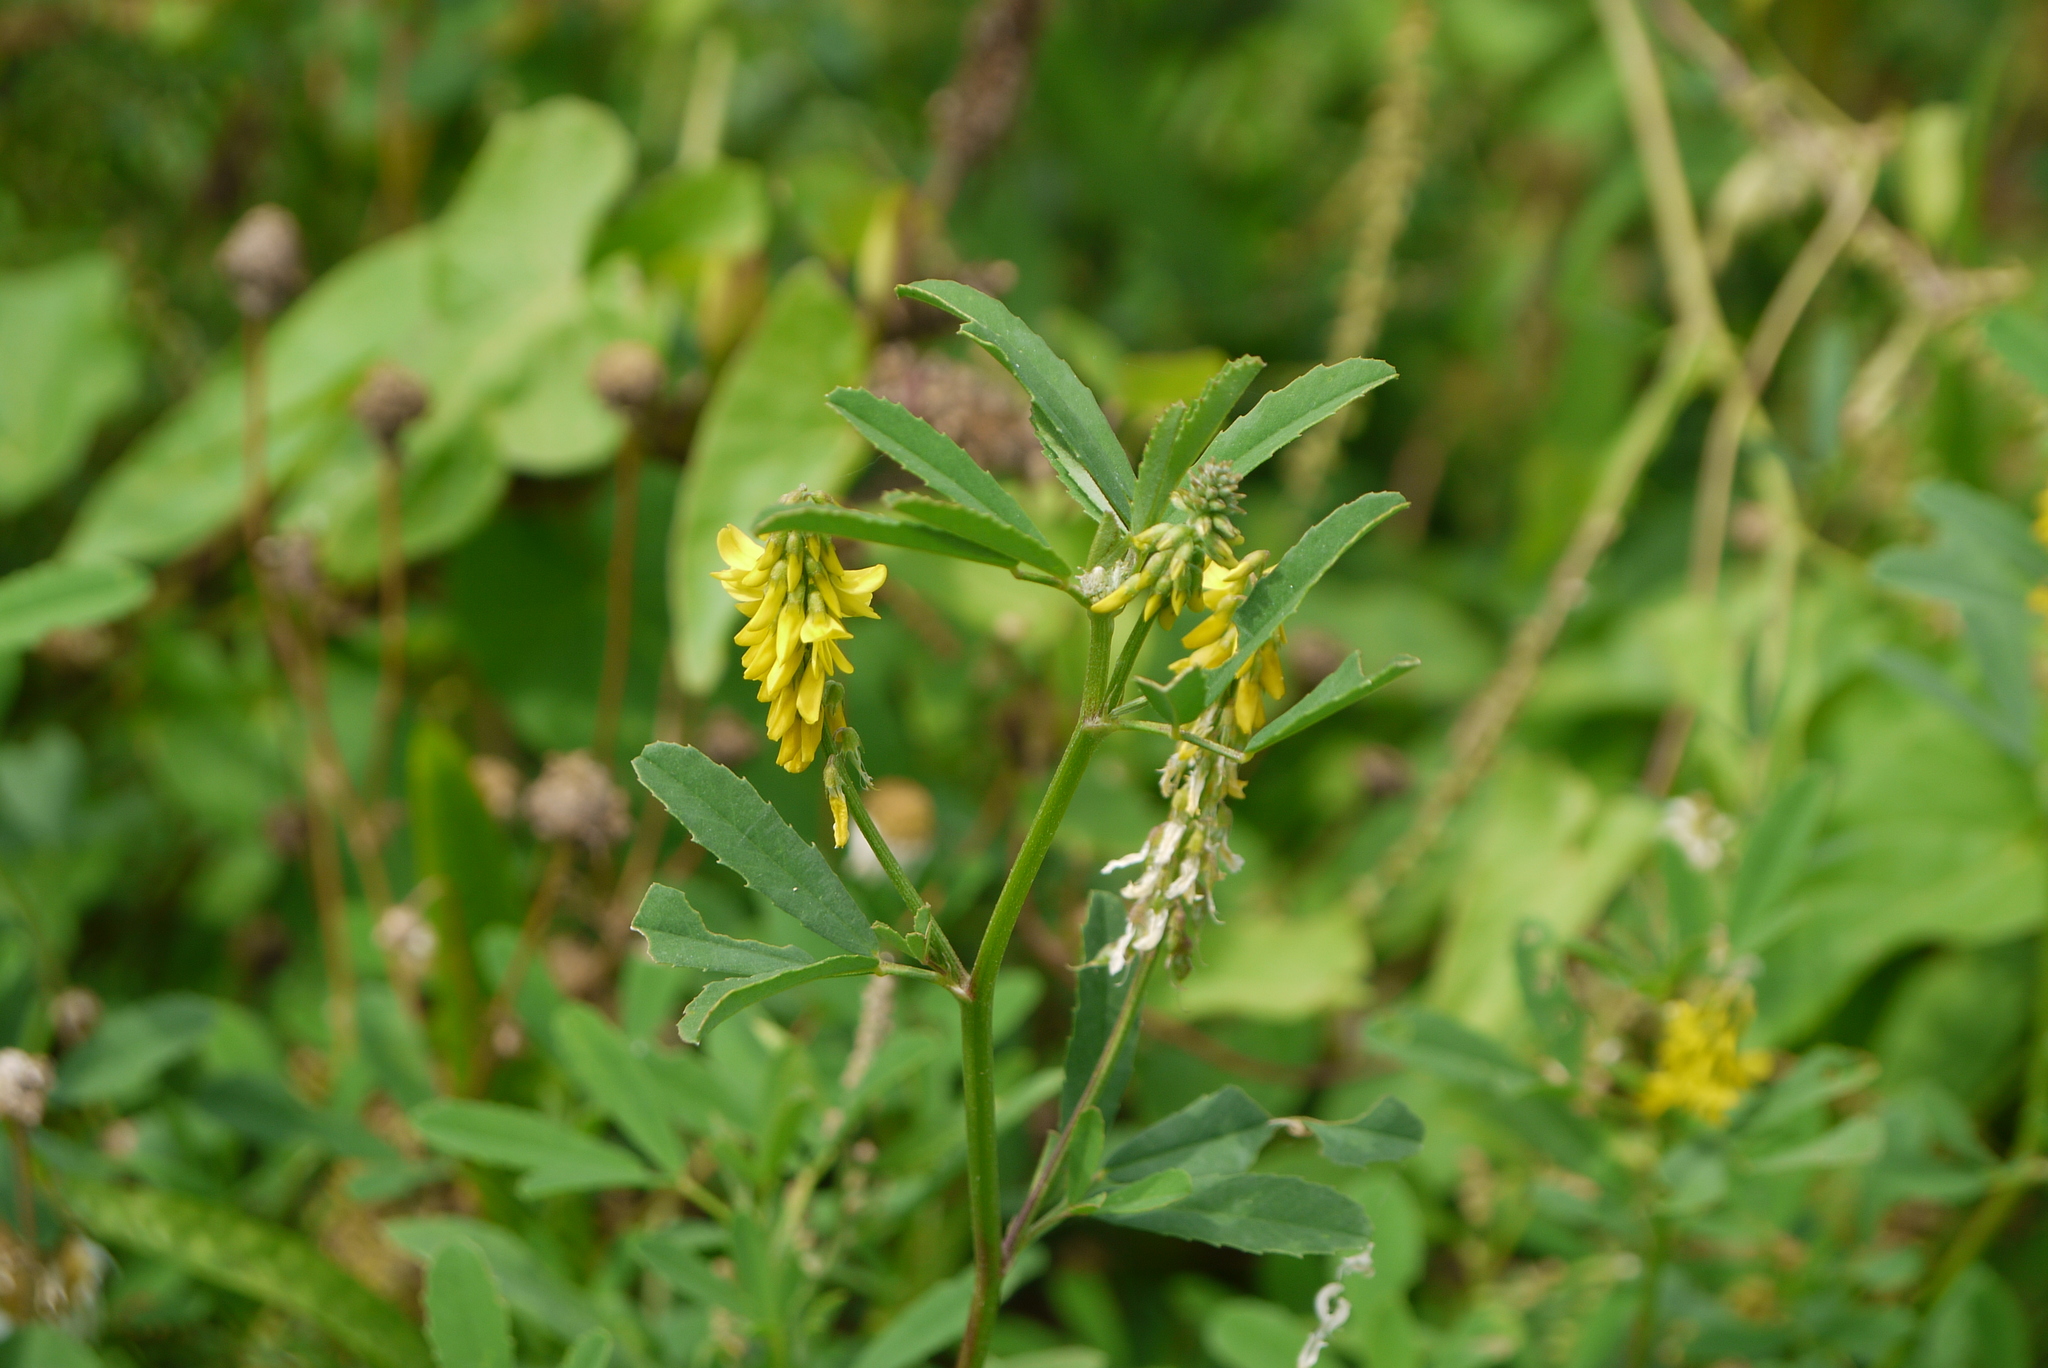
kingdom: Plantae
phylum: Tracheophyta
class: Magnoliopsida
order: Fabales
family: Fabaceae
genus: Melilotus
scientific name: Melilotus officinalis
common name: Sweetclover
